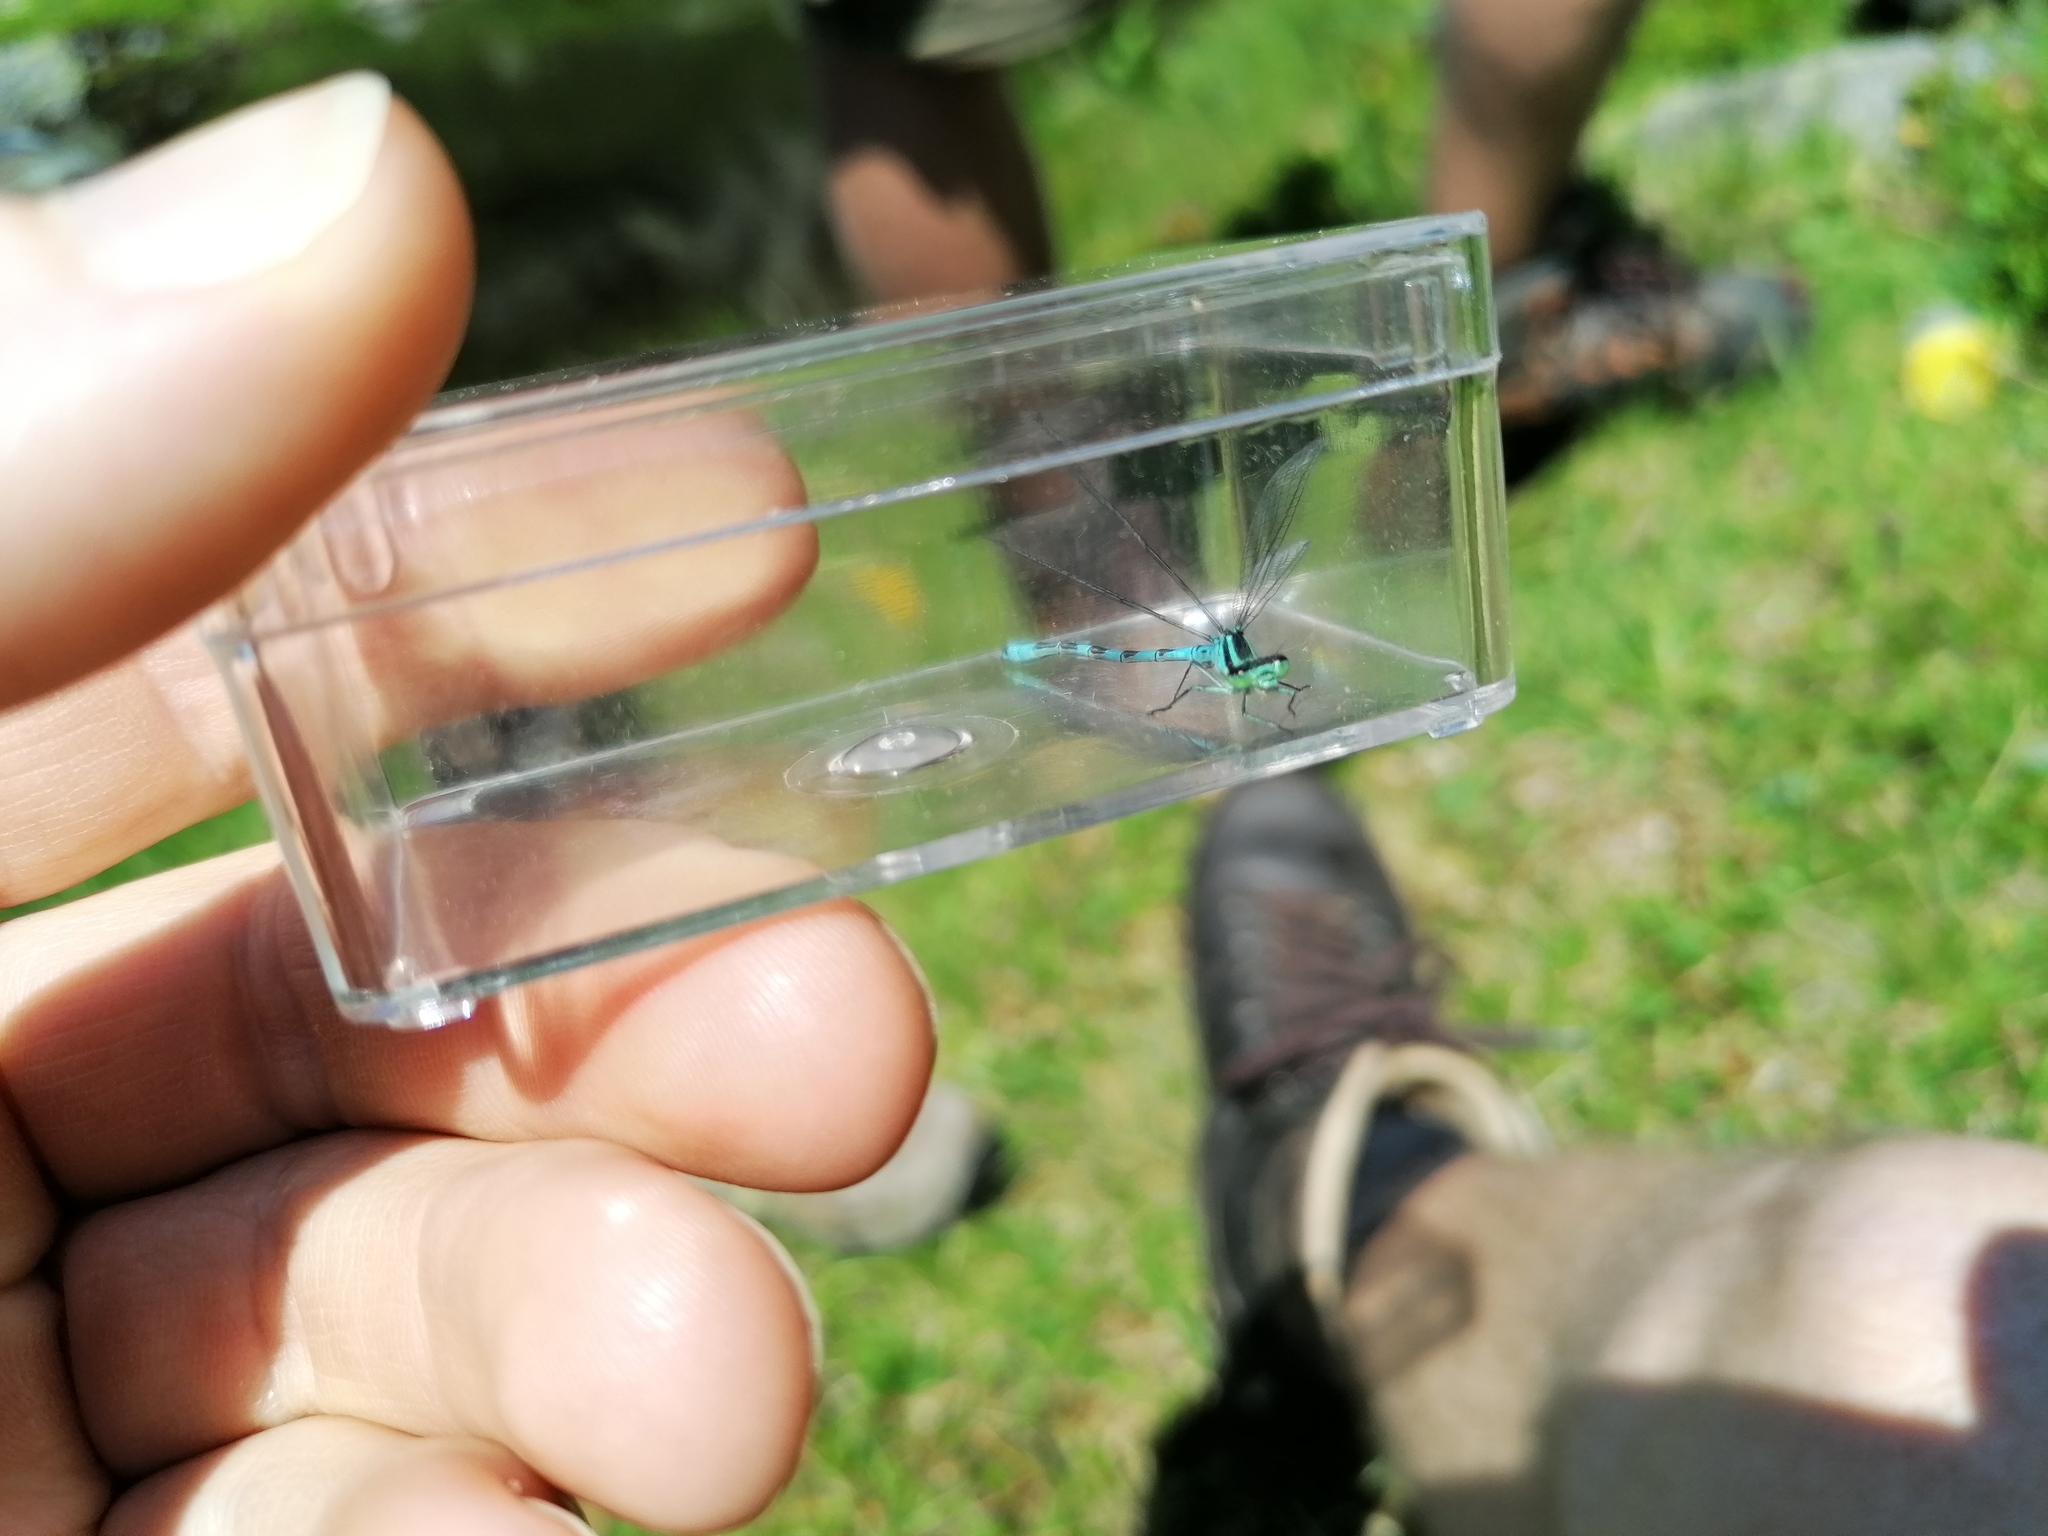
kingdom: Animalia
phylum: Arthropoda
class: Insecta
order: Odonata
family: Coenagrionidae
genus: Coenagrion
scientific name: Coenagrion hastulatum
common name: Spearhead bluet
